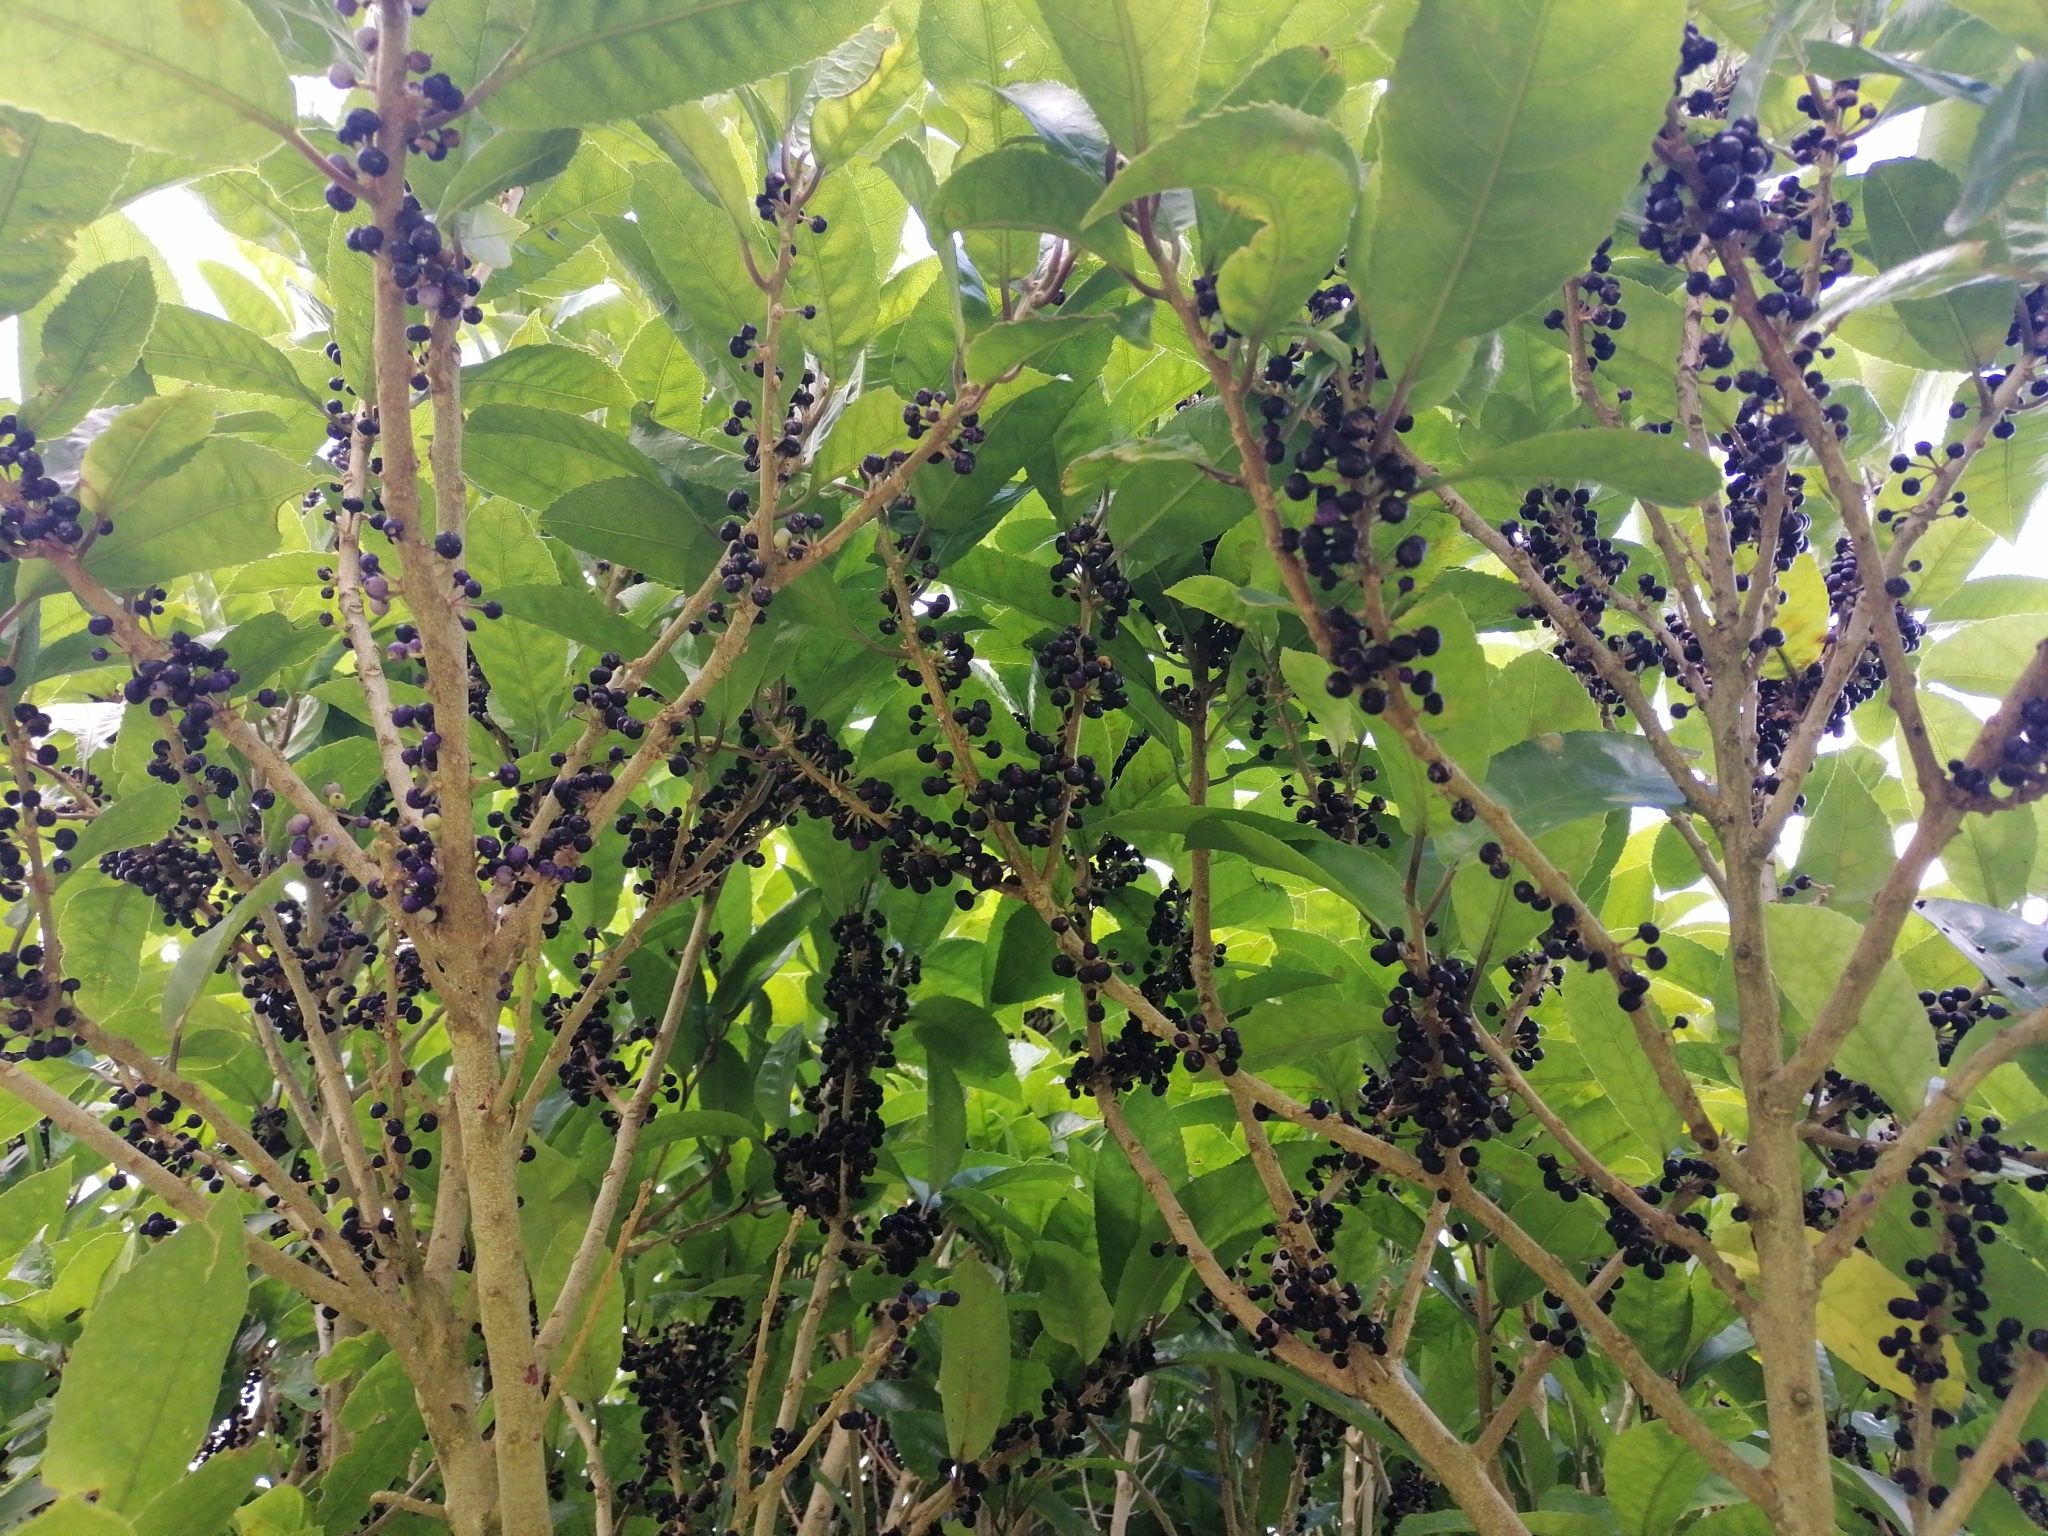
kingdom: Plantae
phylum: Tracheophyta
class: Magnoliopsida
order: Malpighiales
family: Violaceae
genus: Melicytus
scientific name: Melicytus ramiflorus
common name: Mahoe
